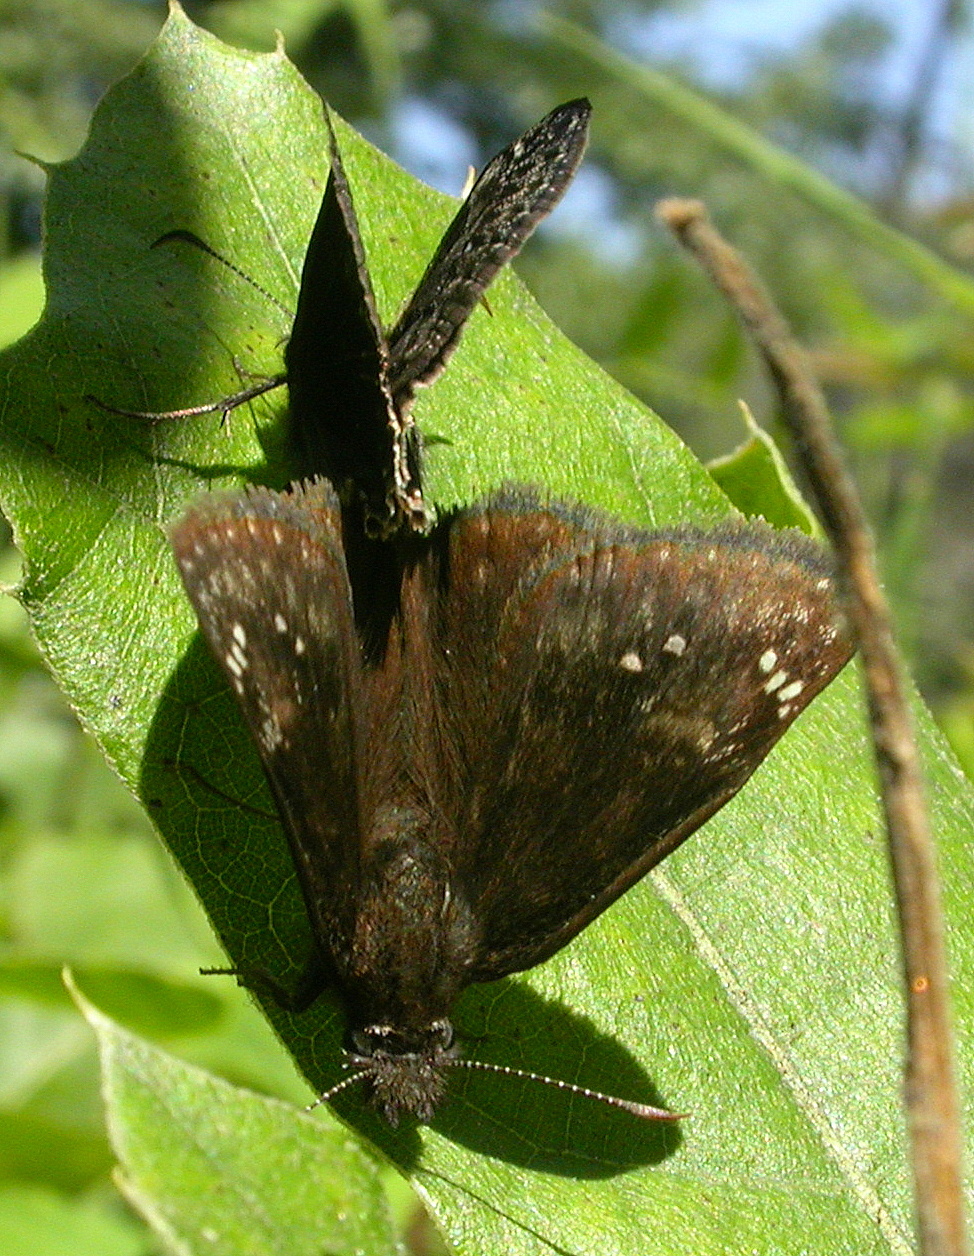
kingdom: Animalia
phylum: Arthropoda
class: Insecta
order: Lepidoptera
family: Hesperiidae
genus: Erynnis
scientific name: Erynnis baptisiae
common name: Wild indigo duskywing
